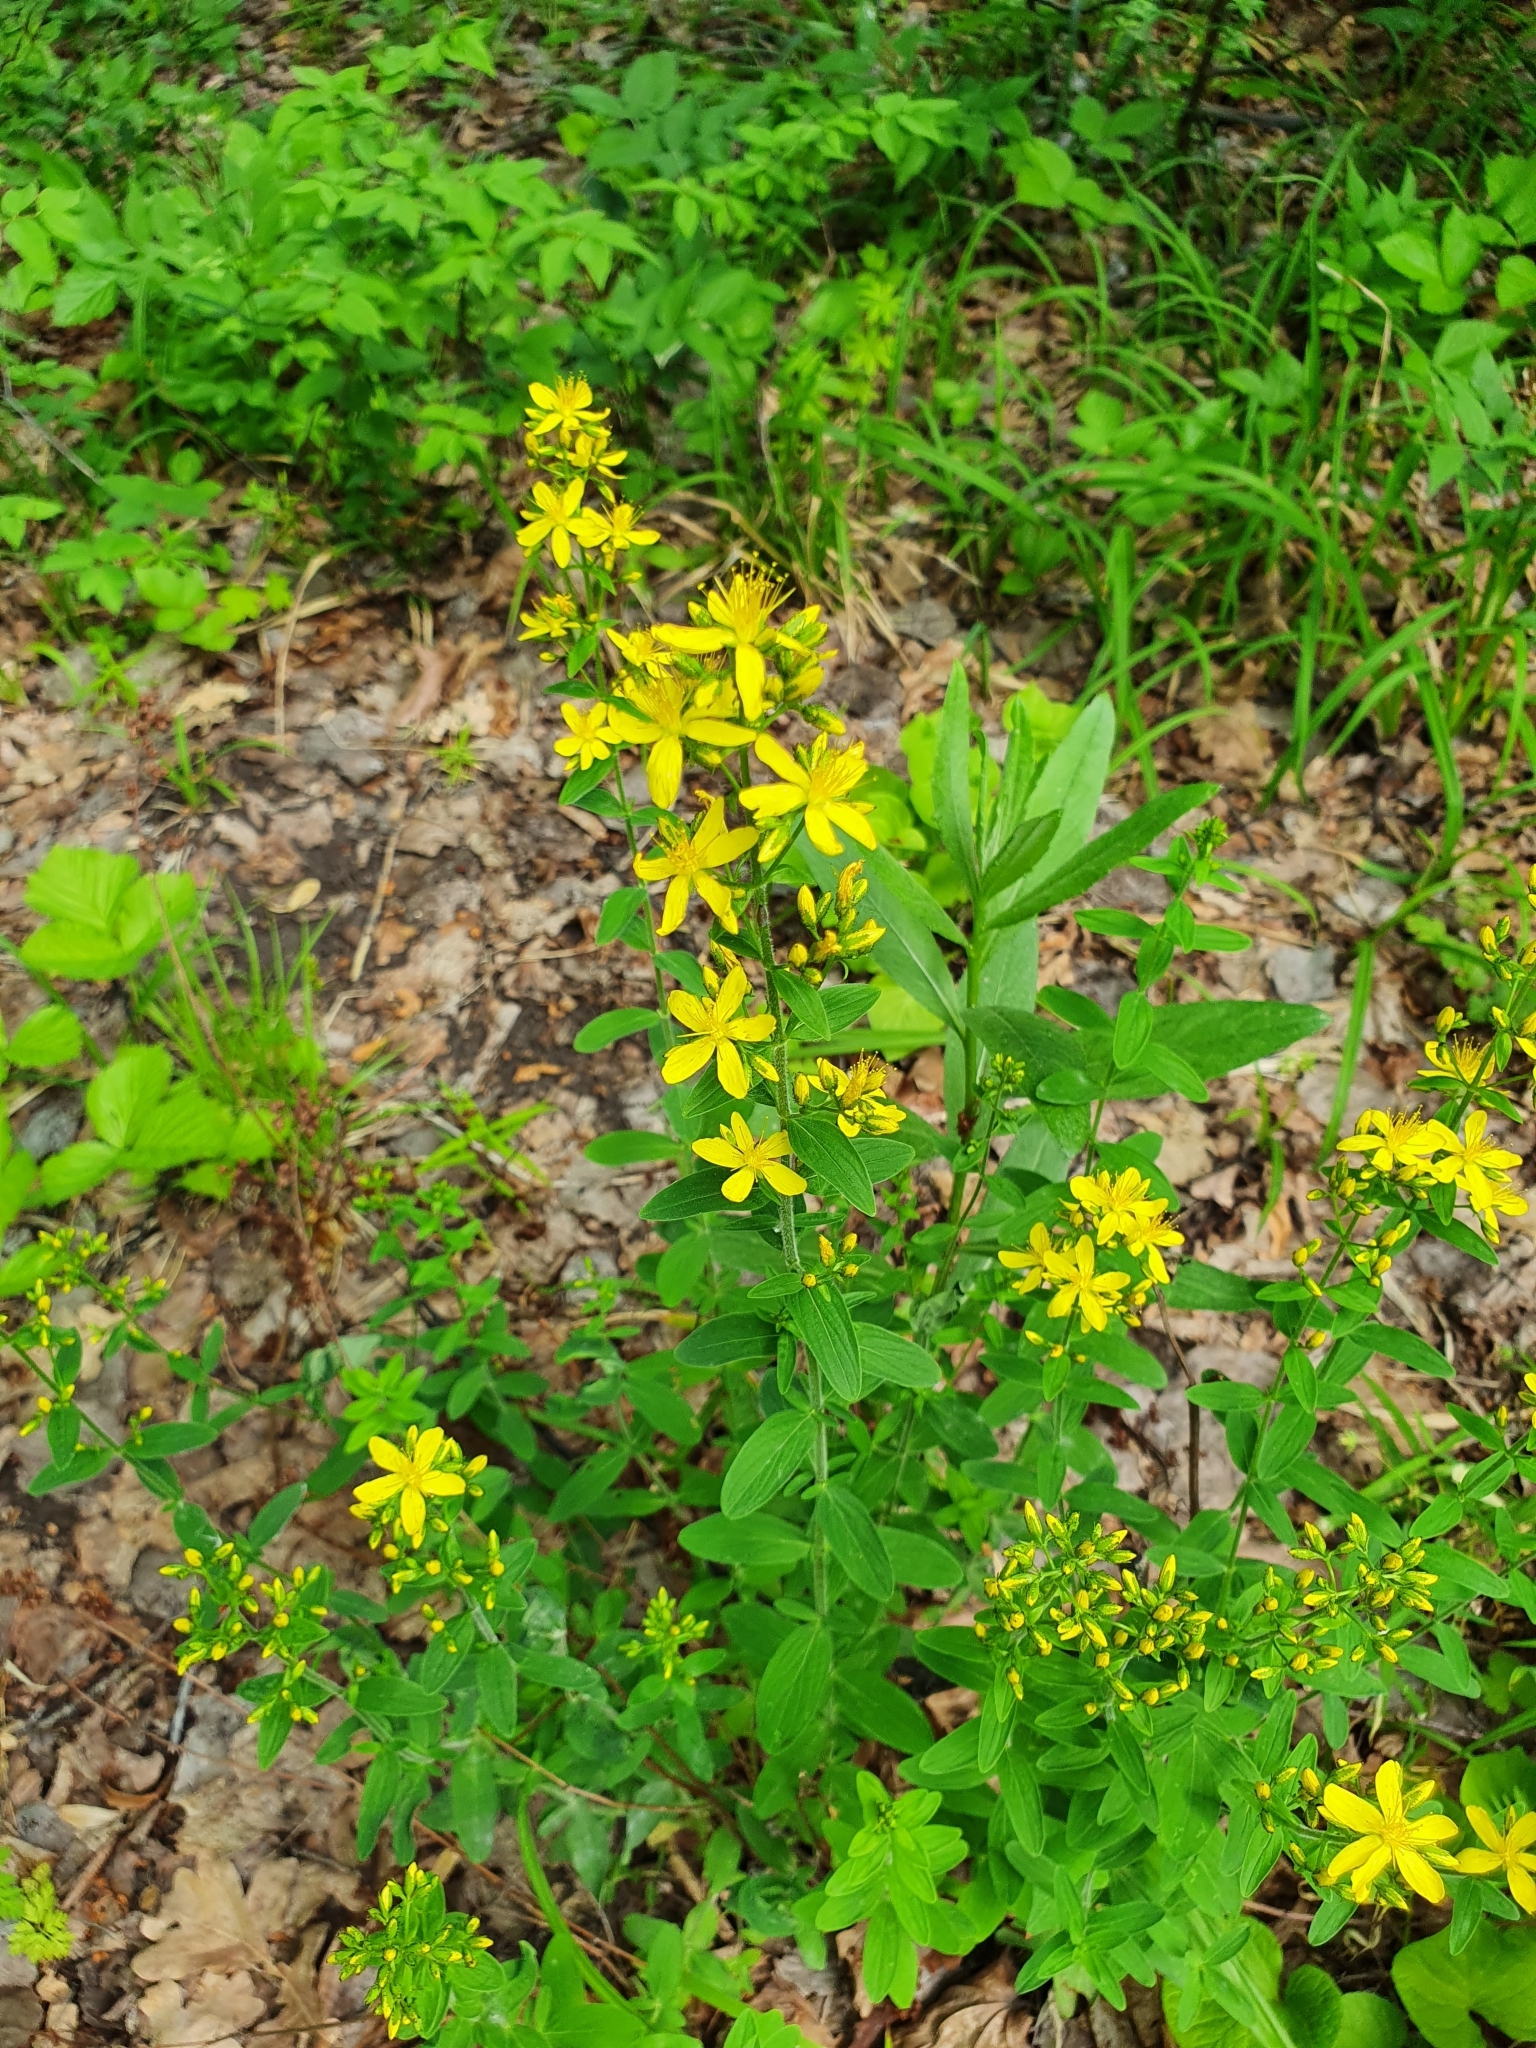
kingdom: Plantae
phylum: Tracheophyta
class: Magnoliopsida
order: Malpighiales
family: Hypericaceae
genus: Hypericum
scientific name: Hypericum hirsutum
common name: Hairy st. john's-wort
